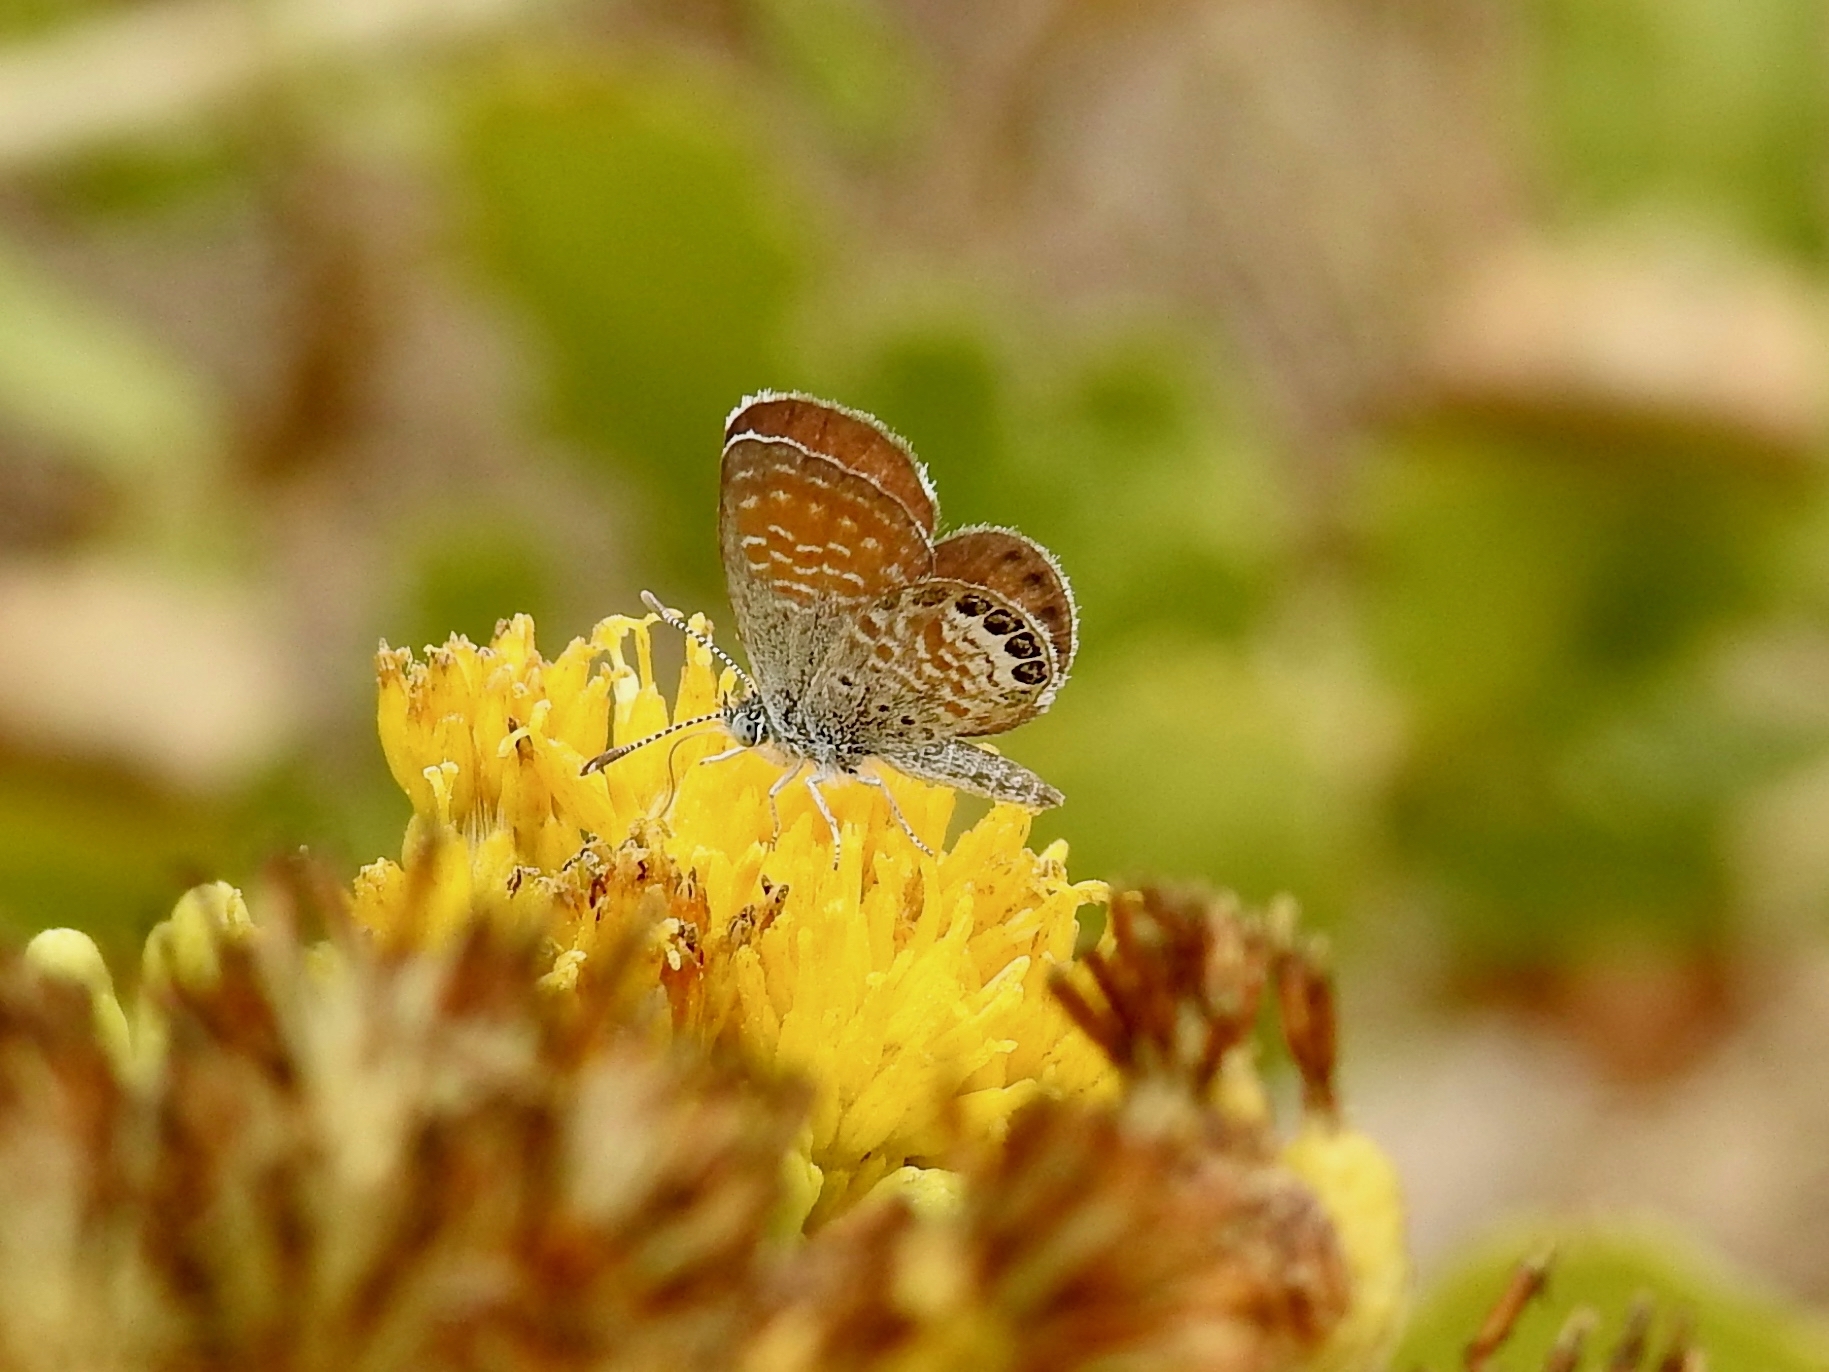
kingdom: Animalia
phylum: Arthropoda
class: Insecta
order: Lepidoptera
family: Lycaenidae
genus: Brephidium
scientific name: Brephidium exilis
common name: Pygmy blue
